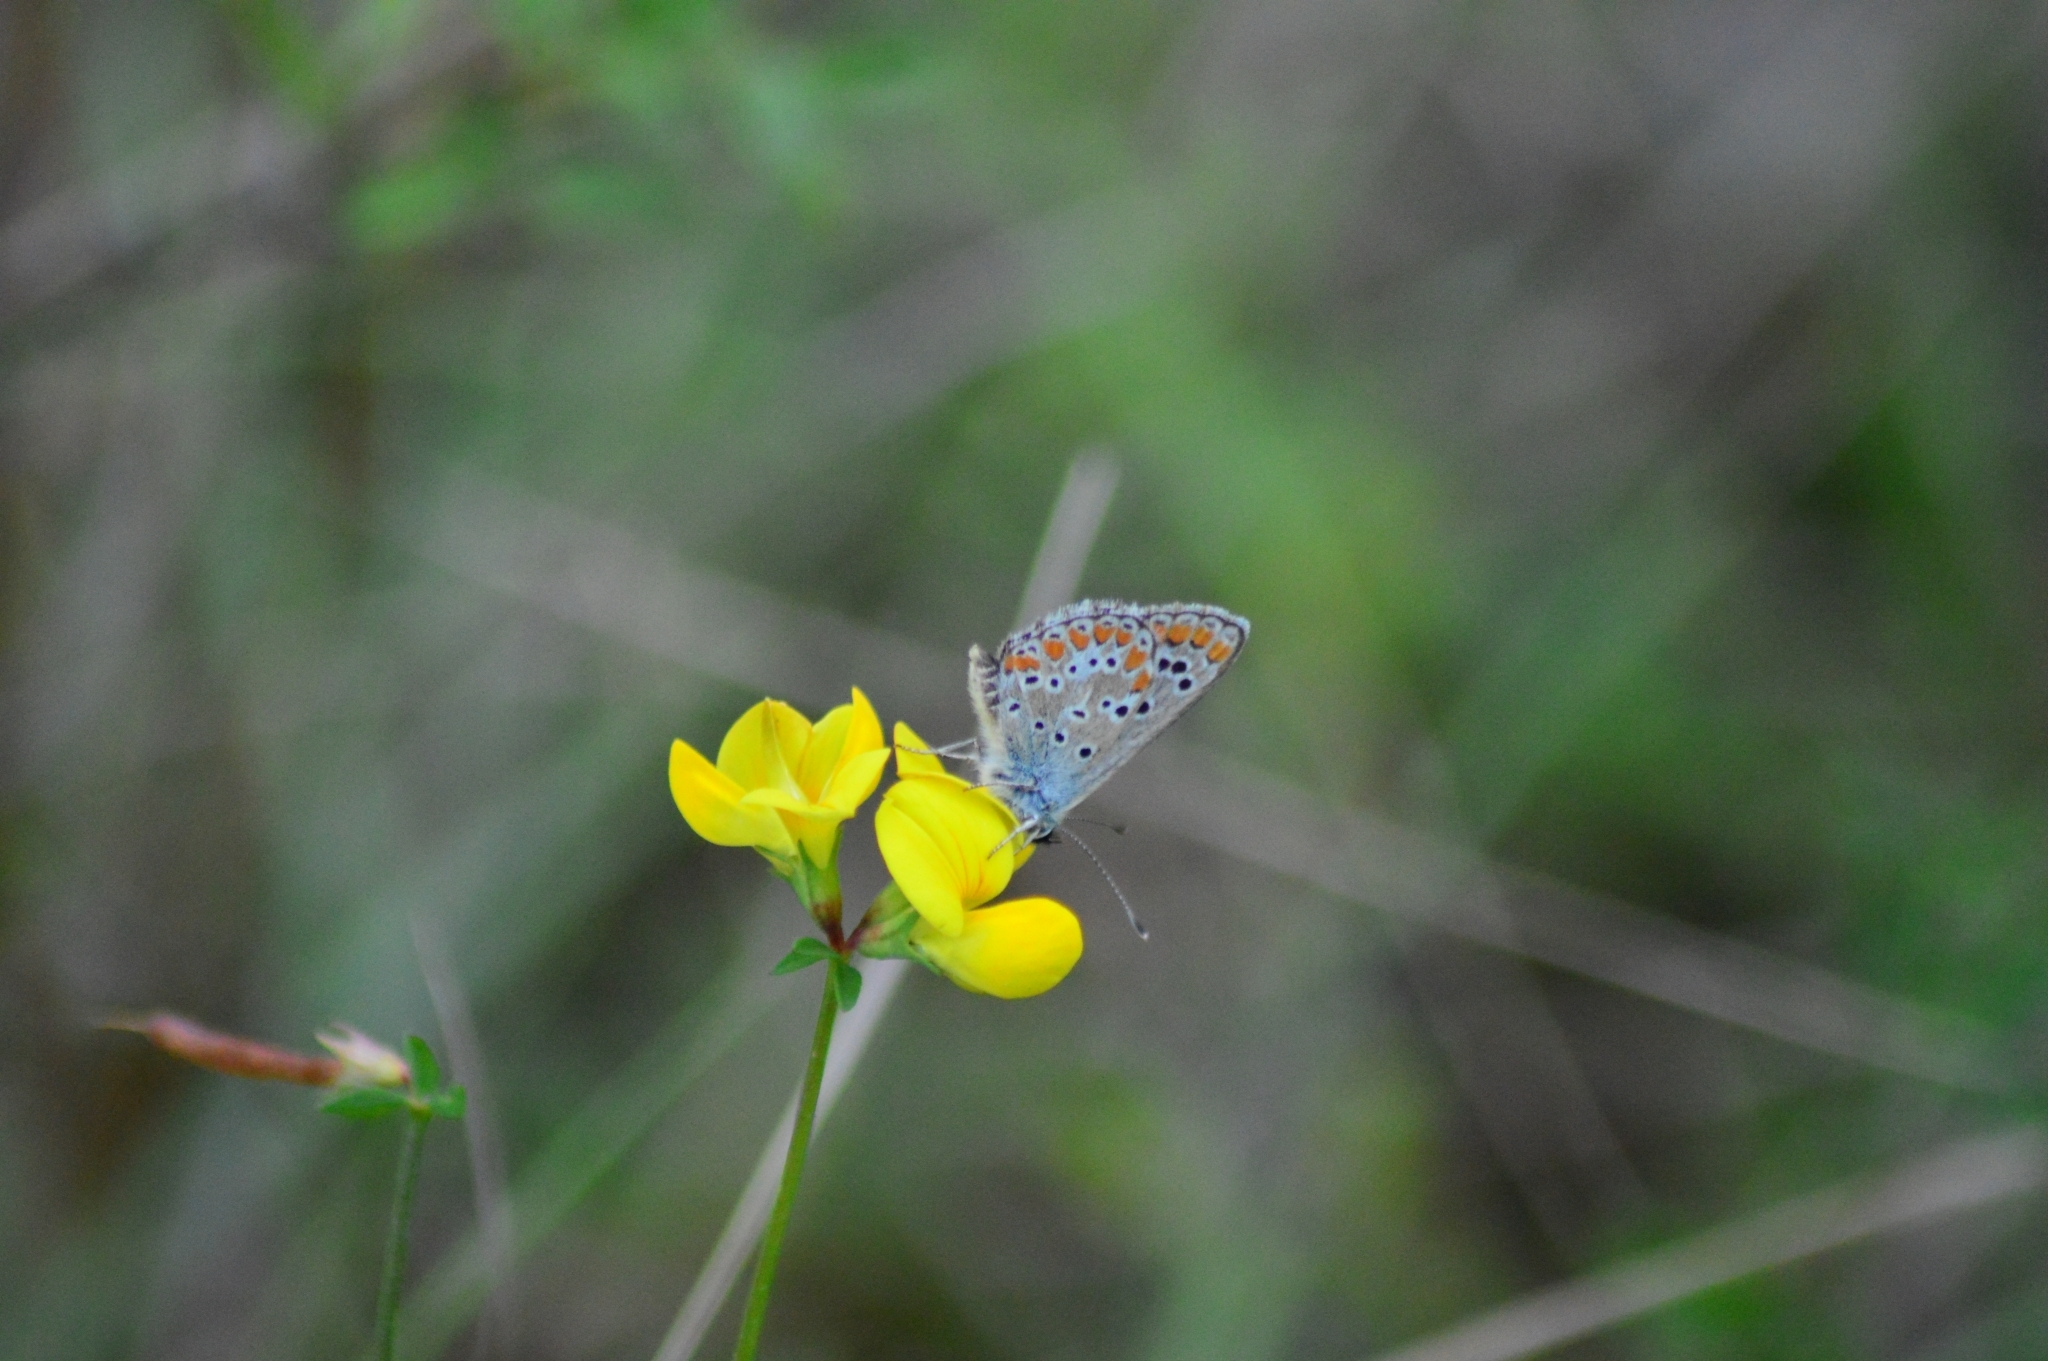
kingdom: Animalia
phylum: Arthropoda
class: Insecta
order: Lepidoptera
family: Lycaenidae
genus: Aricia
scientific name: Aricia agestis
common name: Brown argus
